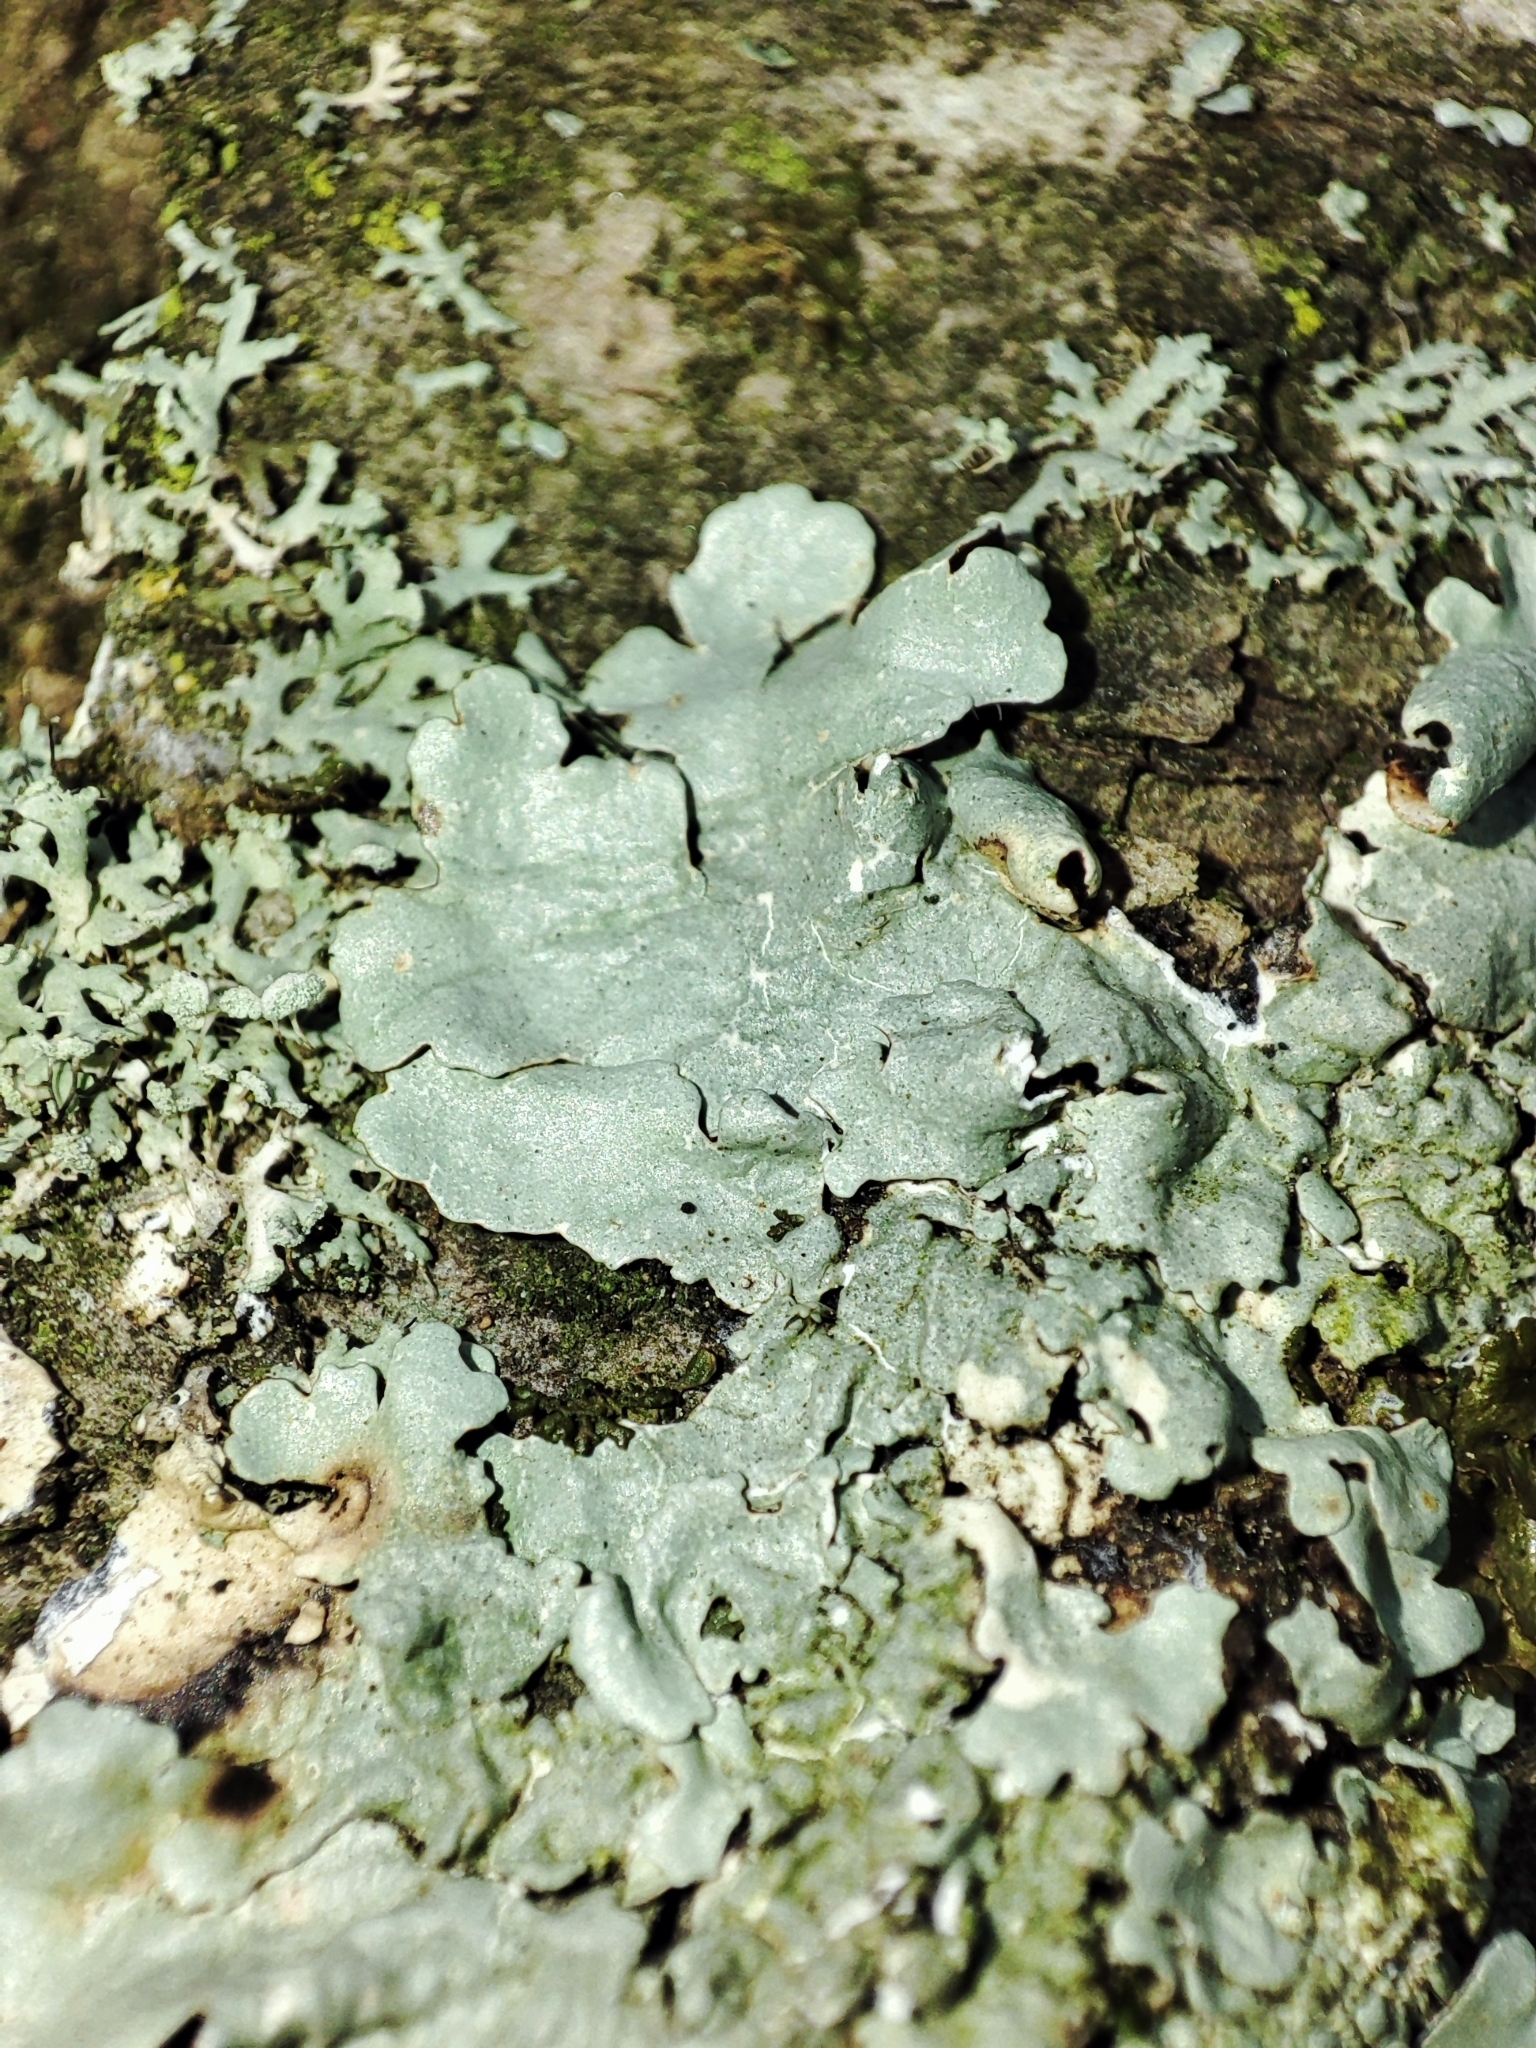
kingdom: Fungi
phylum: Ascomycota
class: Lecanoromycetes
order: Lecanorales
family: Parmeliaceae
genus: Parmelina
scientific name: Parmelina tiliacea
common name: Linden shield lichen
